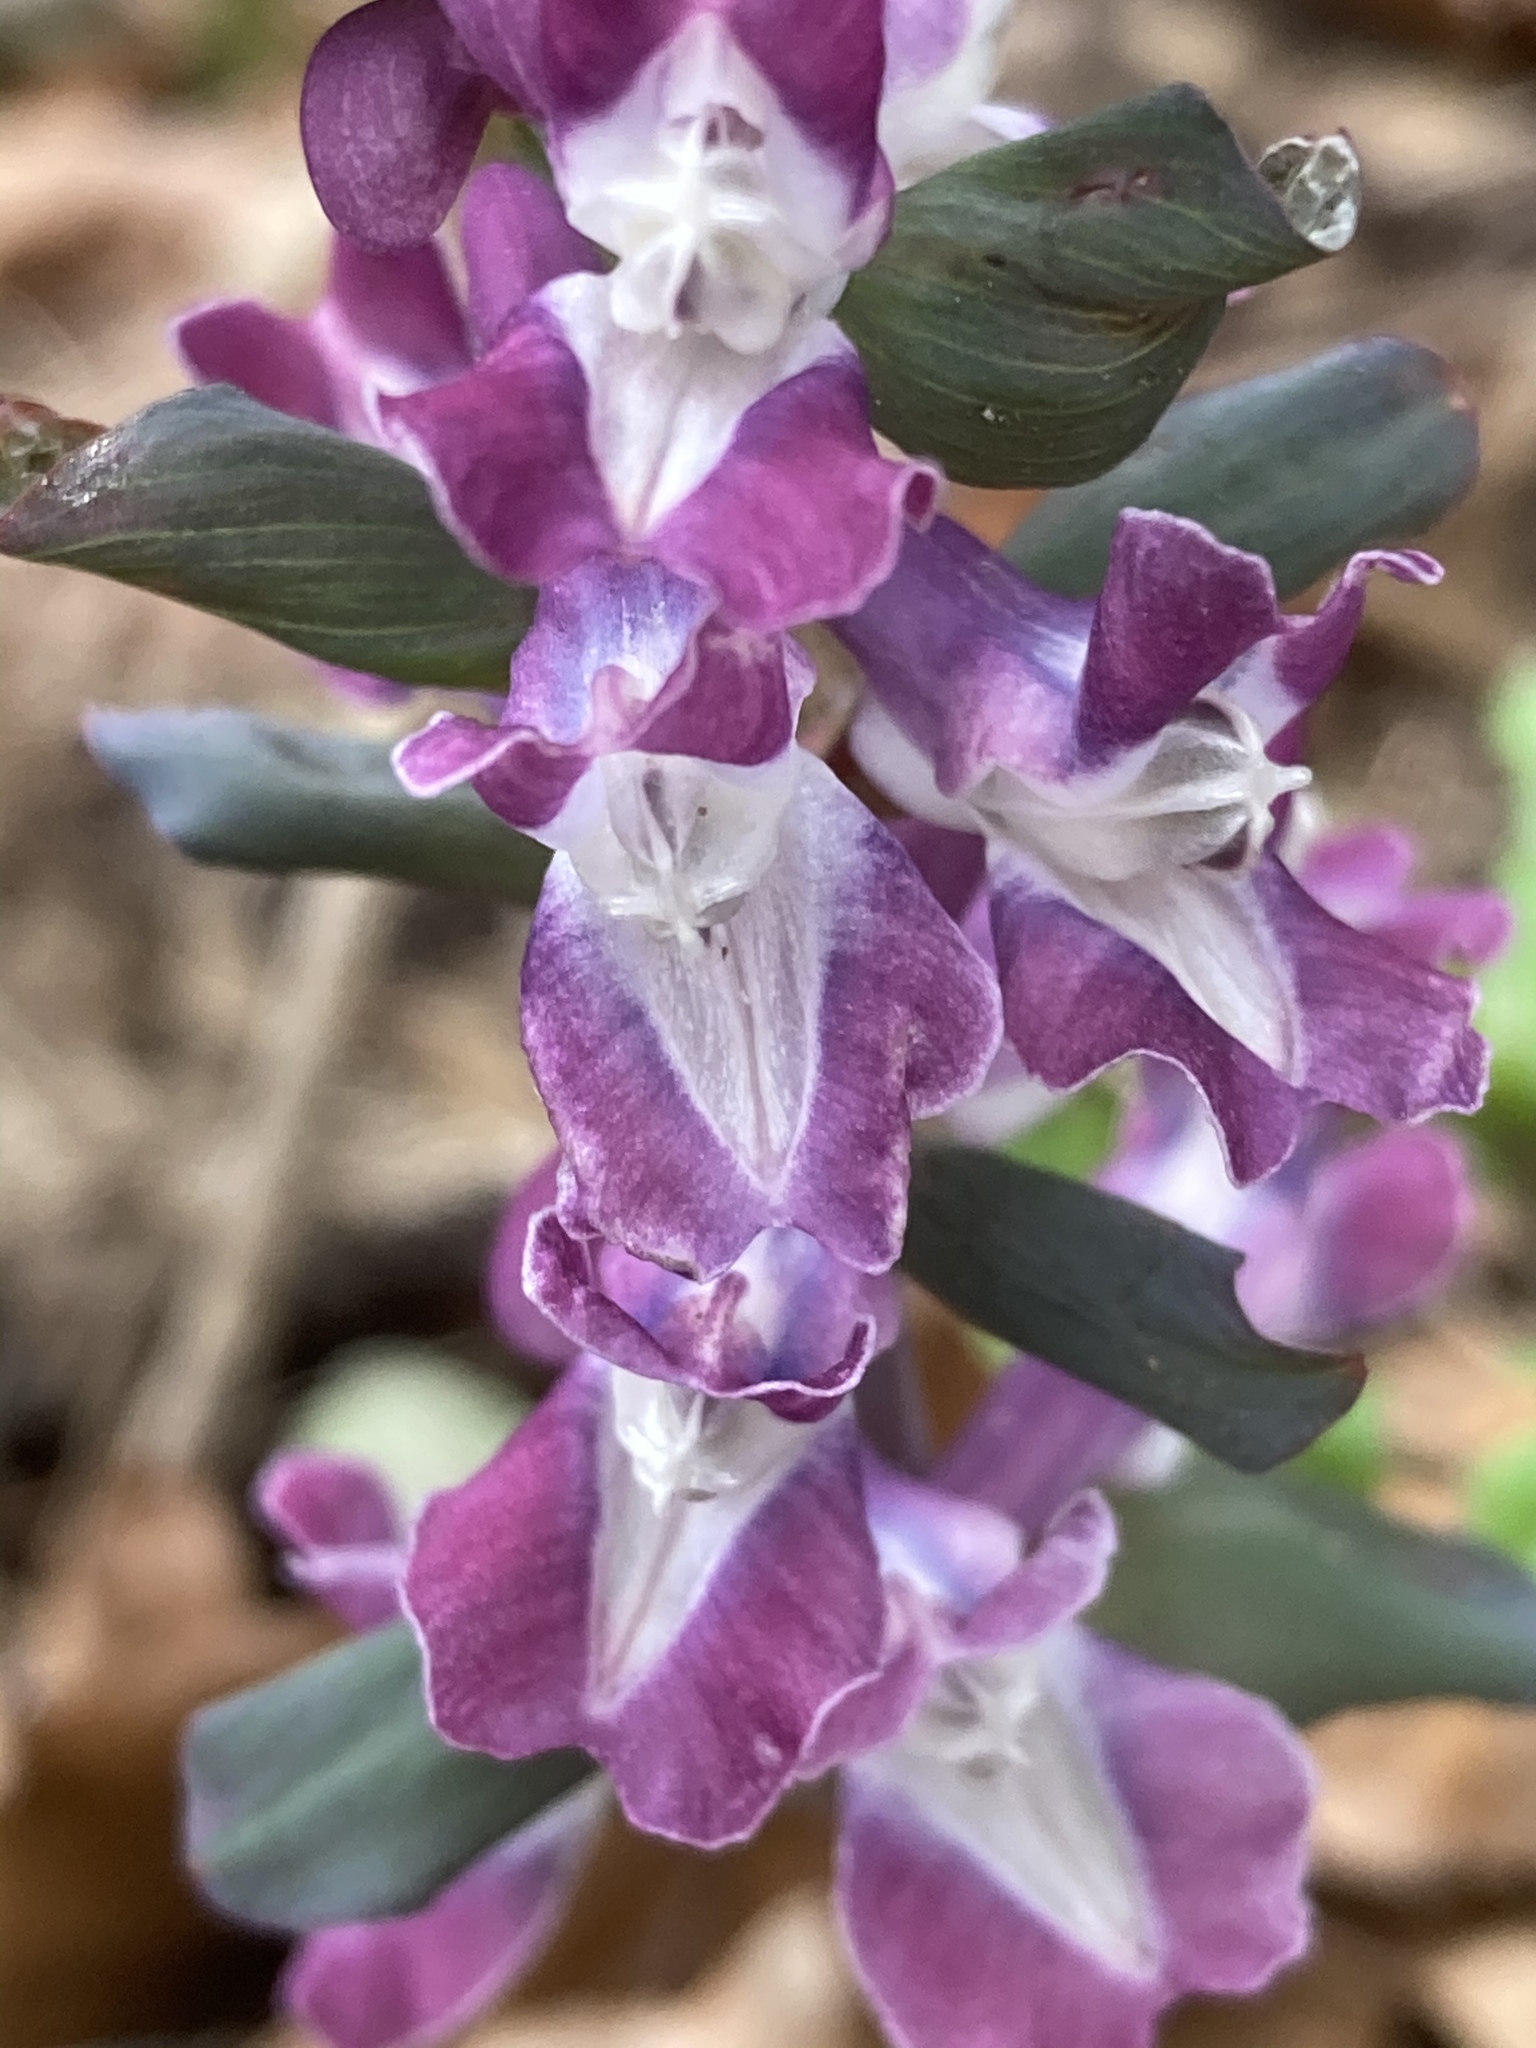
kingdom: Plantae
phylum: Tracheophyta
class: Magnoliopsida
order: Ranunculales
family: Papaveraceae
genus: Corydalis
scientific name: Corydalis cava
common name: Hollowroot
